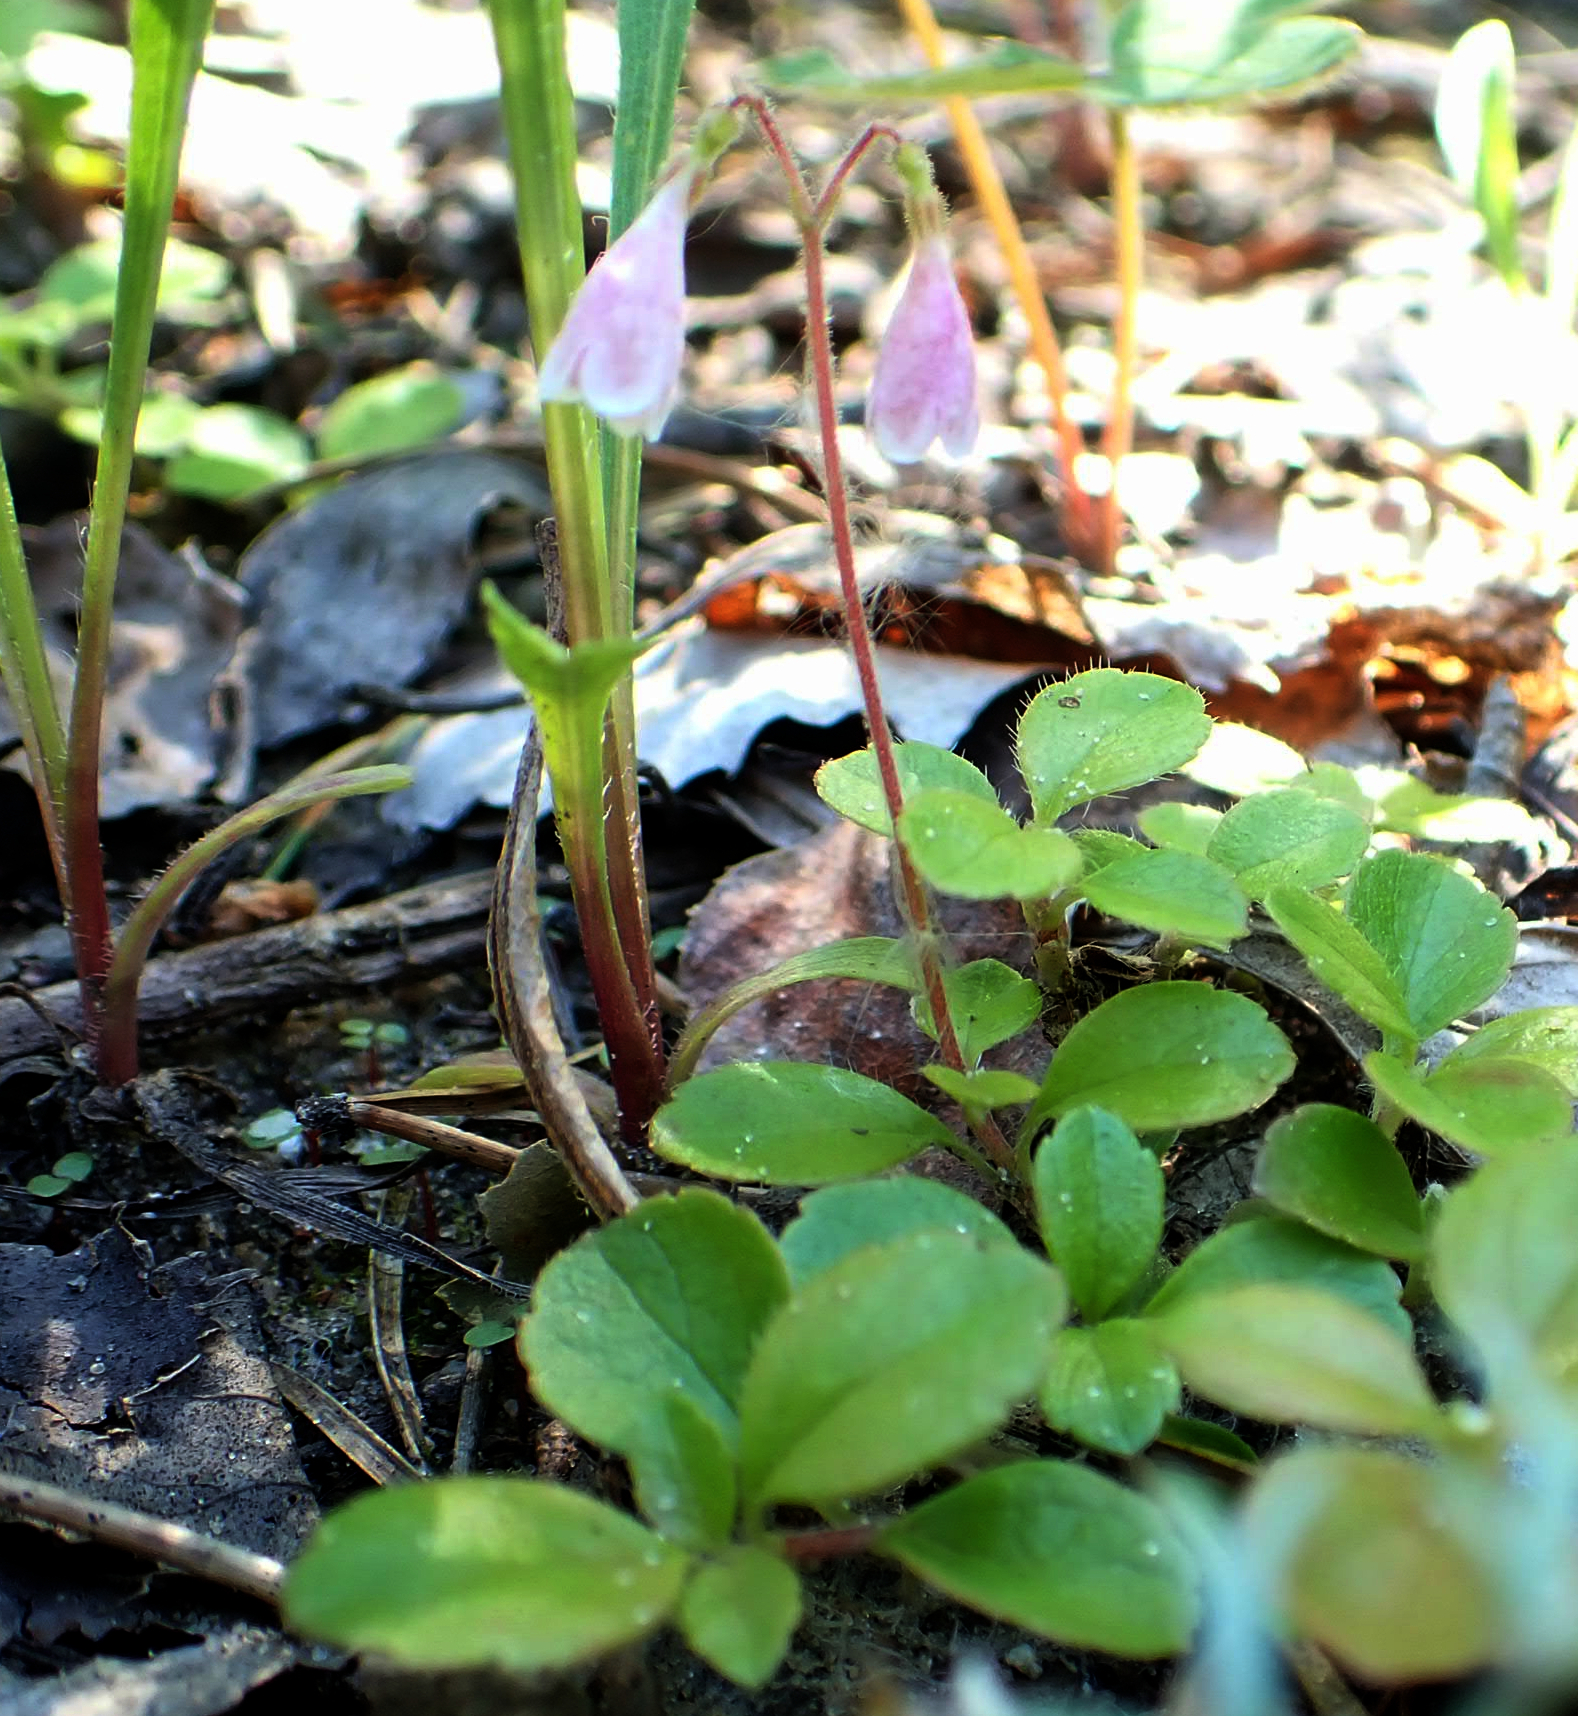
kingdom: Plantae
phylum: Tracheophyta
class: Magnoliopsida
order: Dipsacales
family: Caprifoliaceae
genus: Linnaea
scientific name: Linnaea borealis
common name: Twinflower
